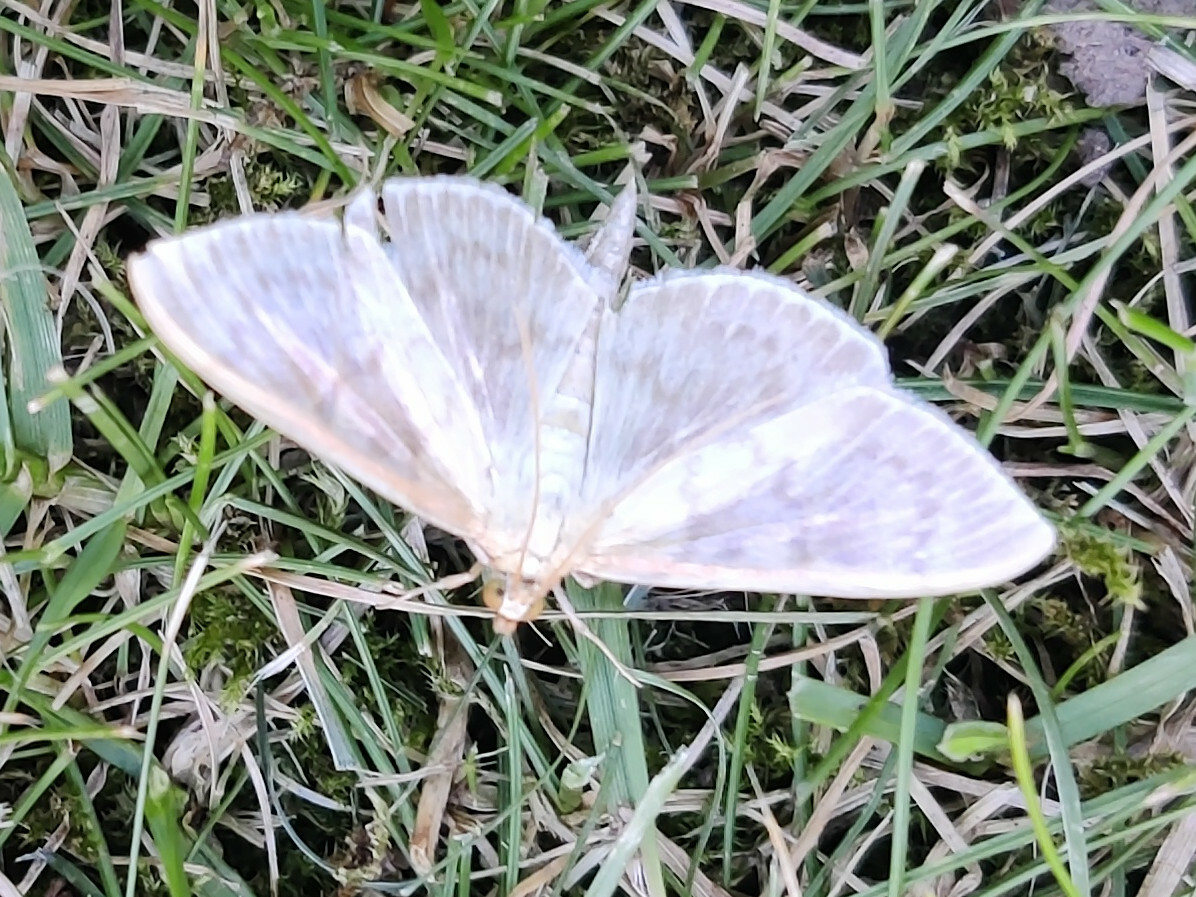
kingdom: Animalia
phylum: Arthropoda
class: Insecta
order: Lepidoptera
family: Crambidae
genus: Patania
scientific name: Patania ruralis
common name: Mother of pearl
